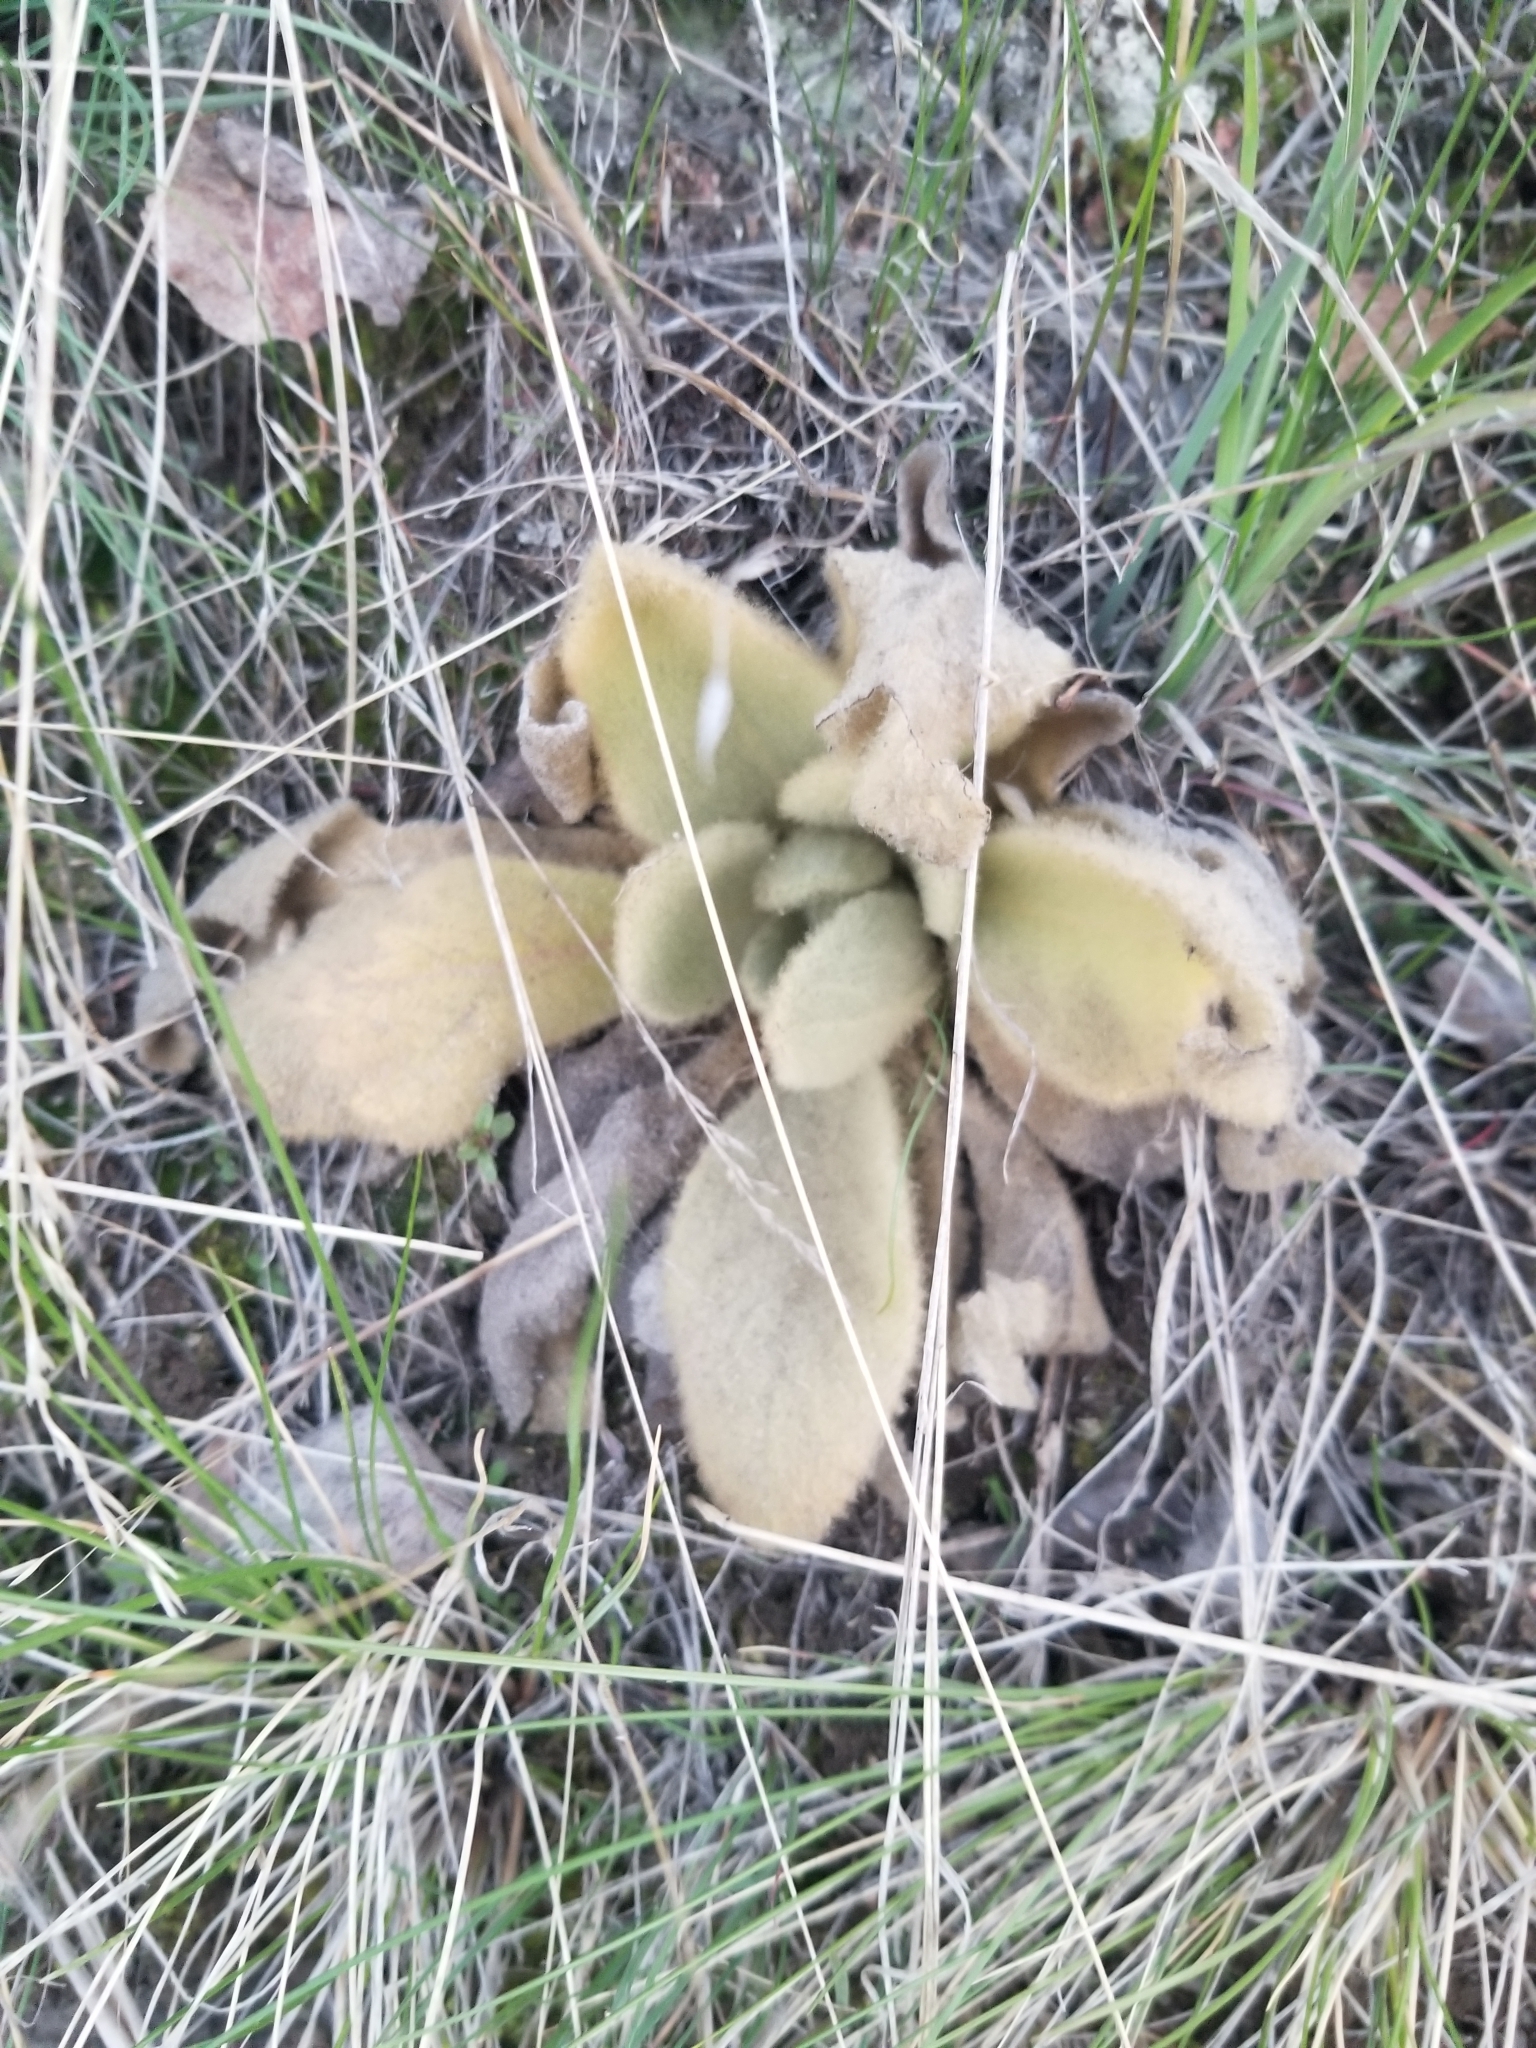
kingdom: Plantae
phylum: Tracheophyta
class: Magnoliopsida
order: Lamiales
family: Scrophulariaceae
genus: Verbascum
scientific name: Verbascum thapsus
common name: Common mullein
